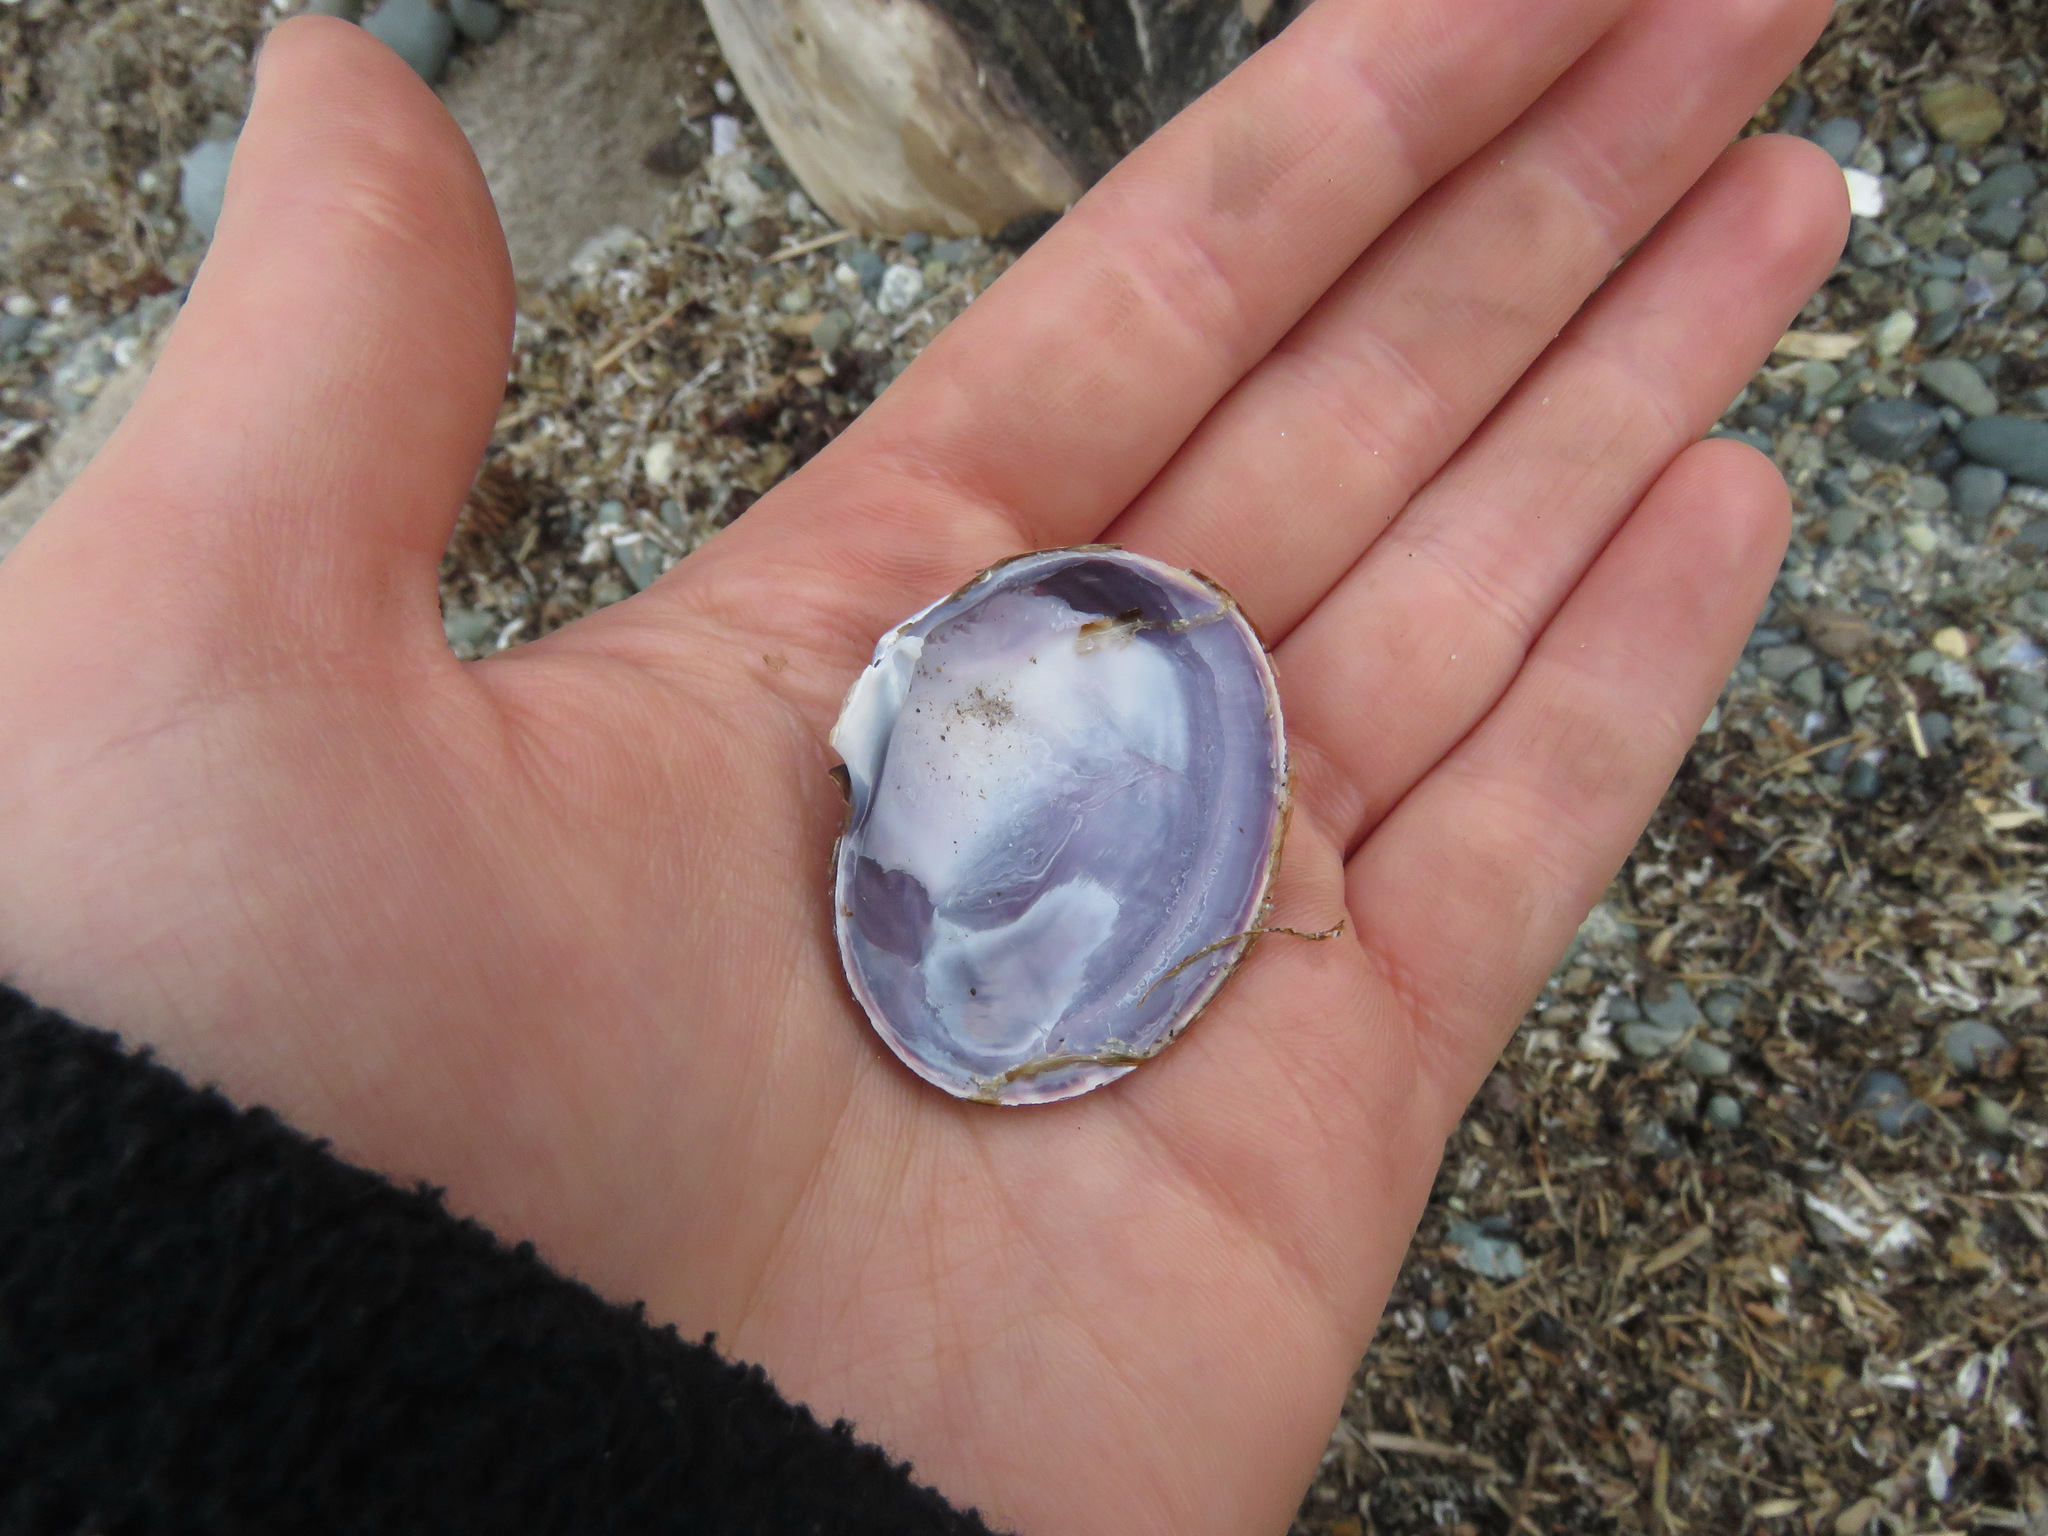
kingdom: Animalia
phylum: Mollusca
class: Bivalvia
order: Cardiida
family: Psammobiidae
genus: Nuttallia
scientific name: Nuttallia obscurata
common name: Purple mahogany-clam
